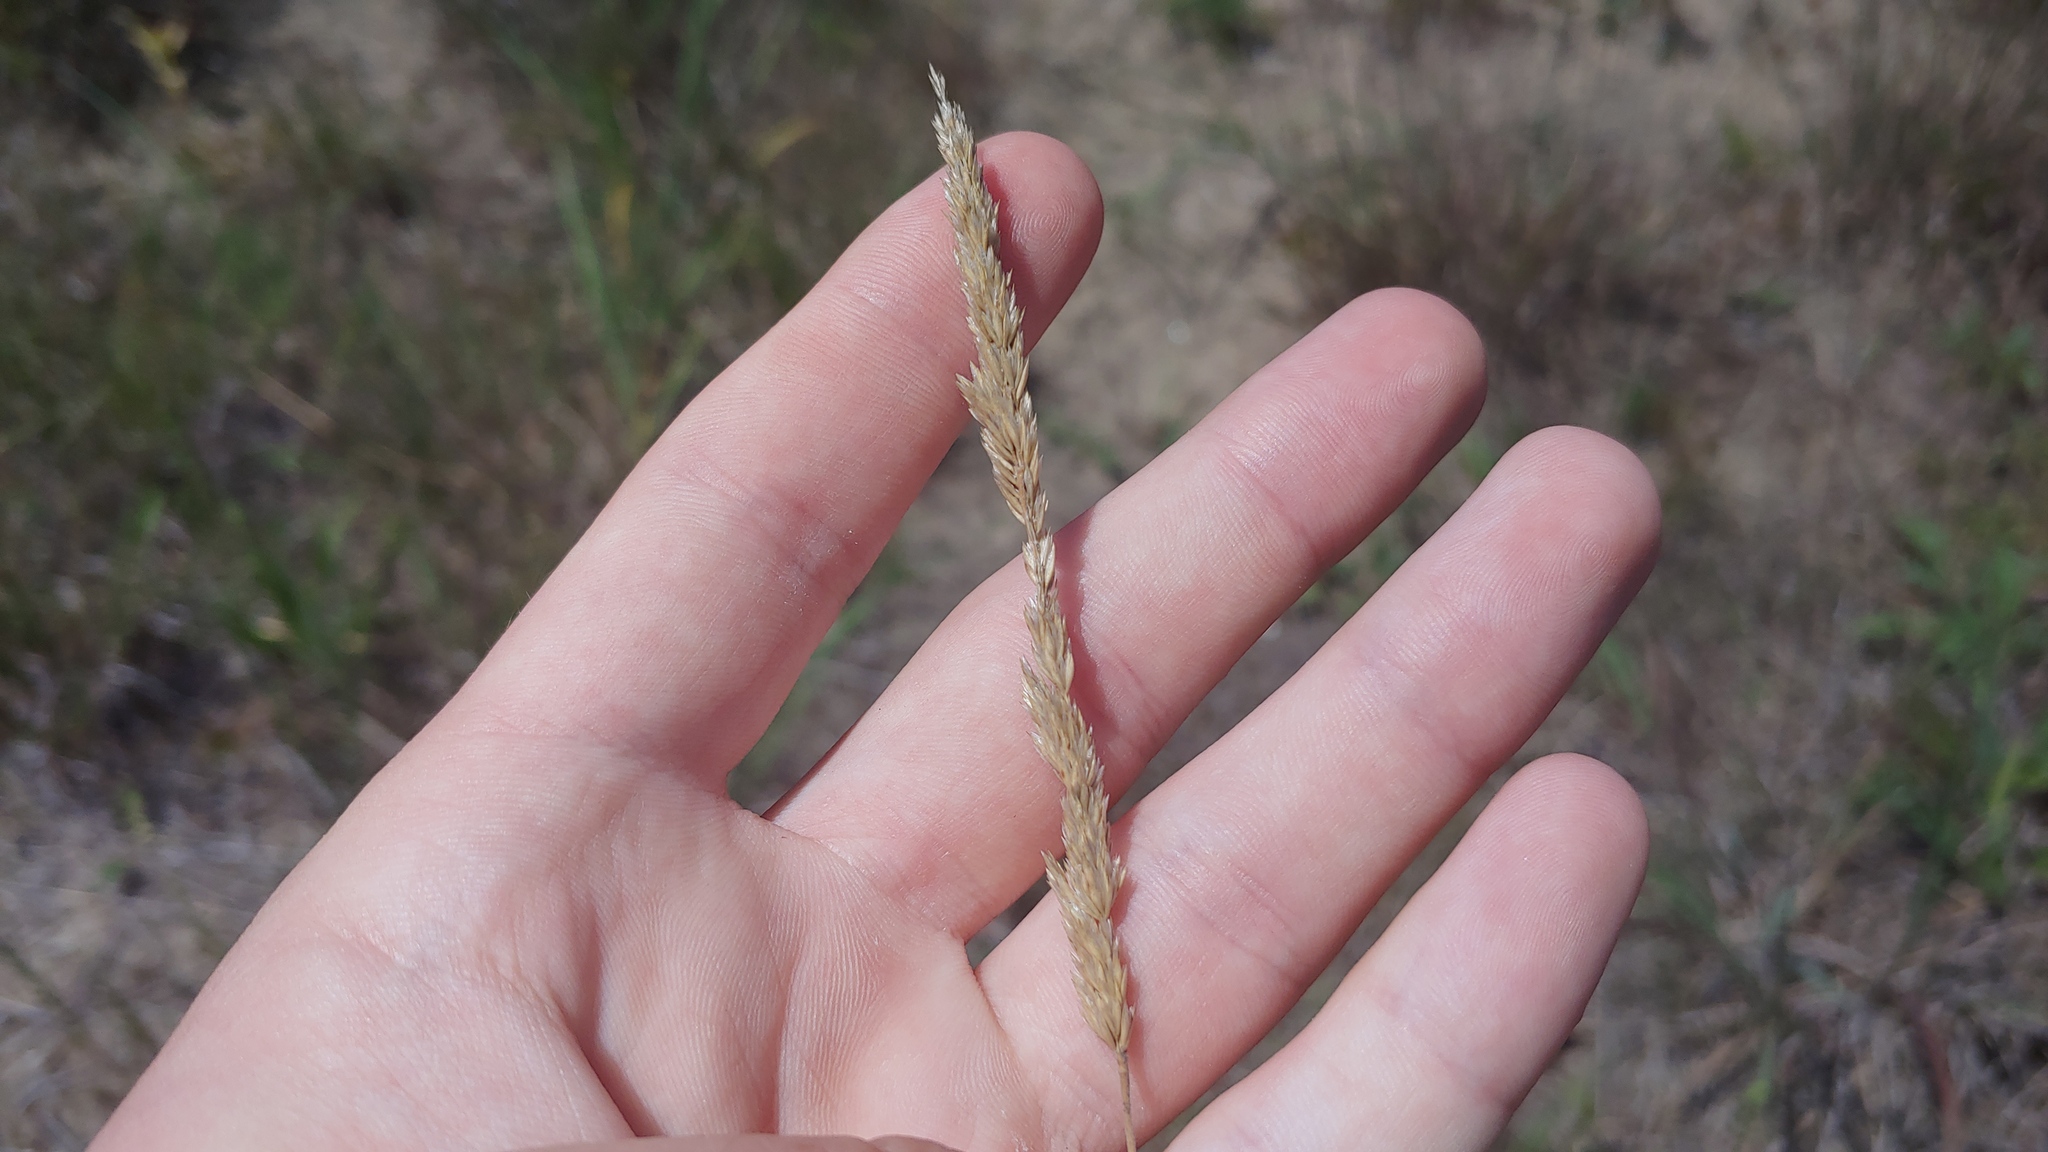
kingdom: Plantae
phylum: Tracheophyta
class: Liliopsida
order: Poales
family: Poaceae
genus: Koeleria
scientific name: Koeleria macrantha
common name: Crested hair-grass
